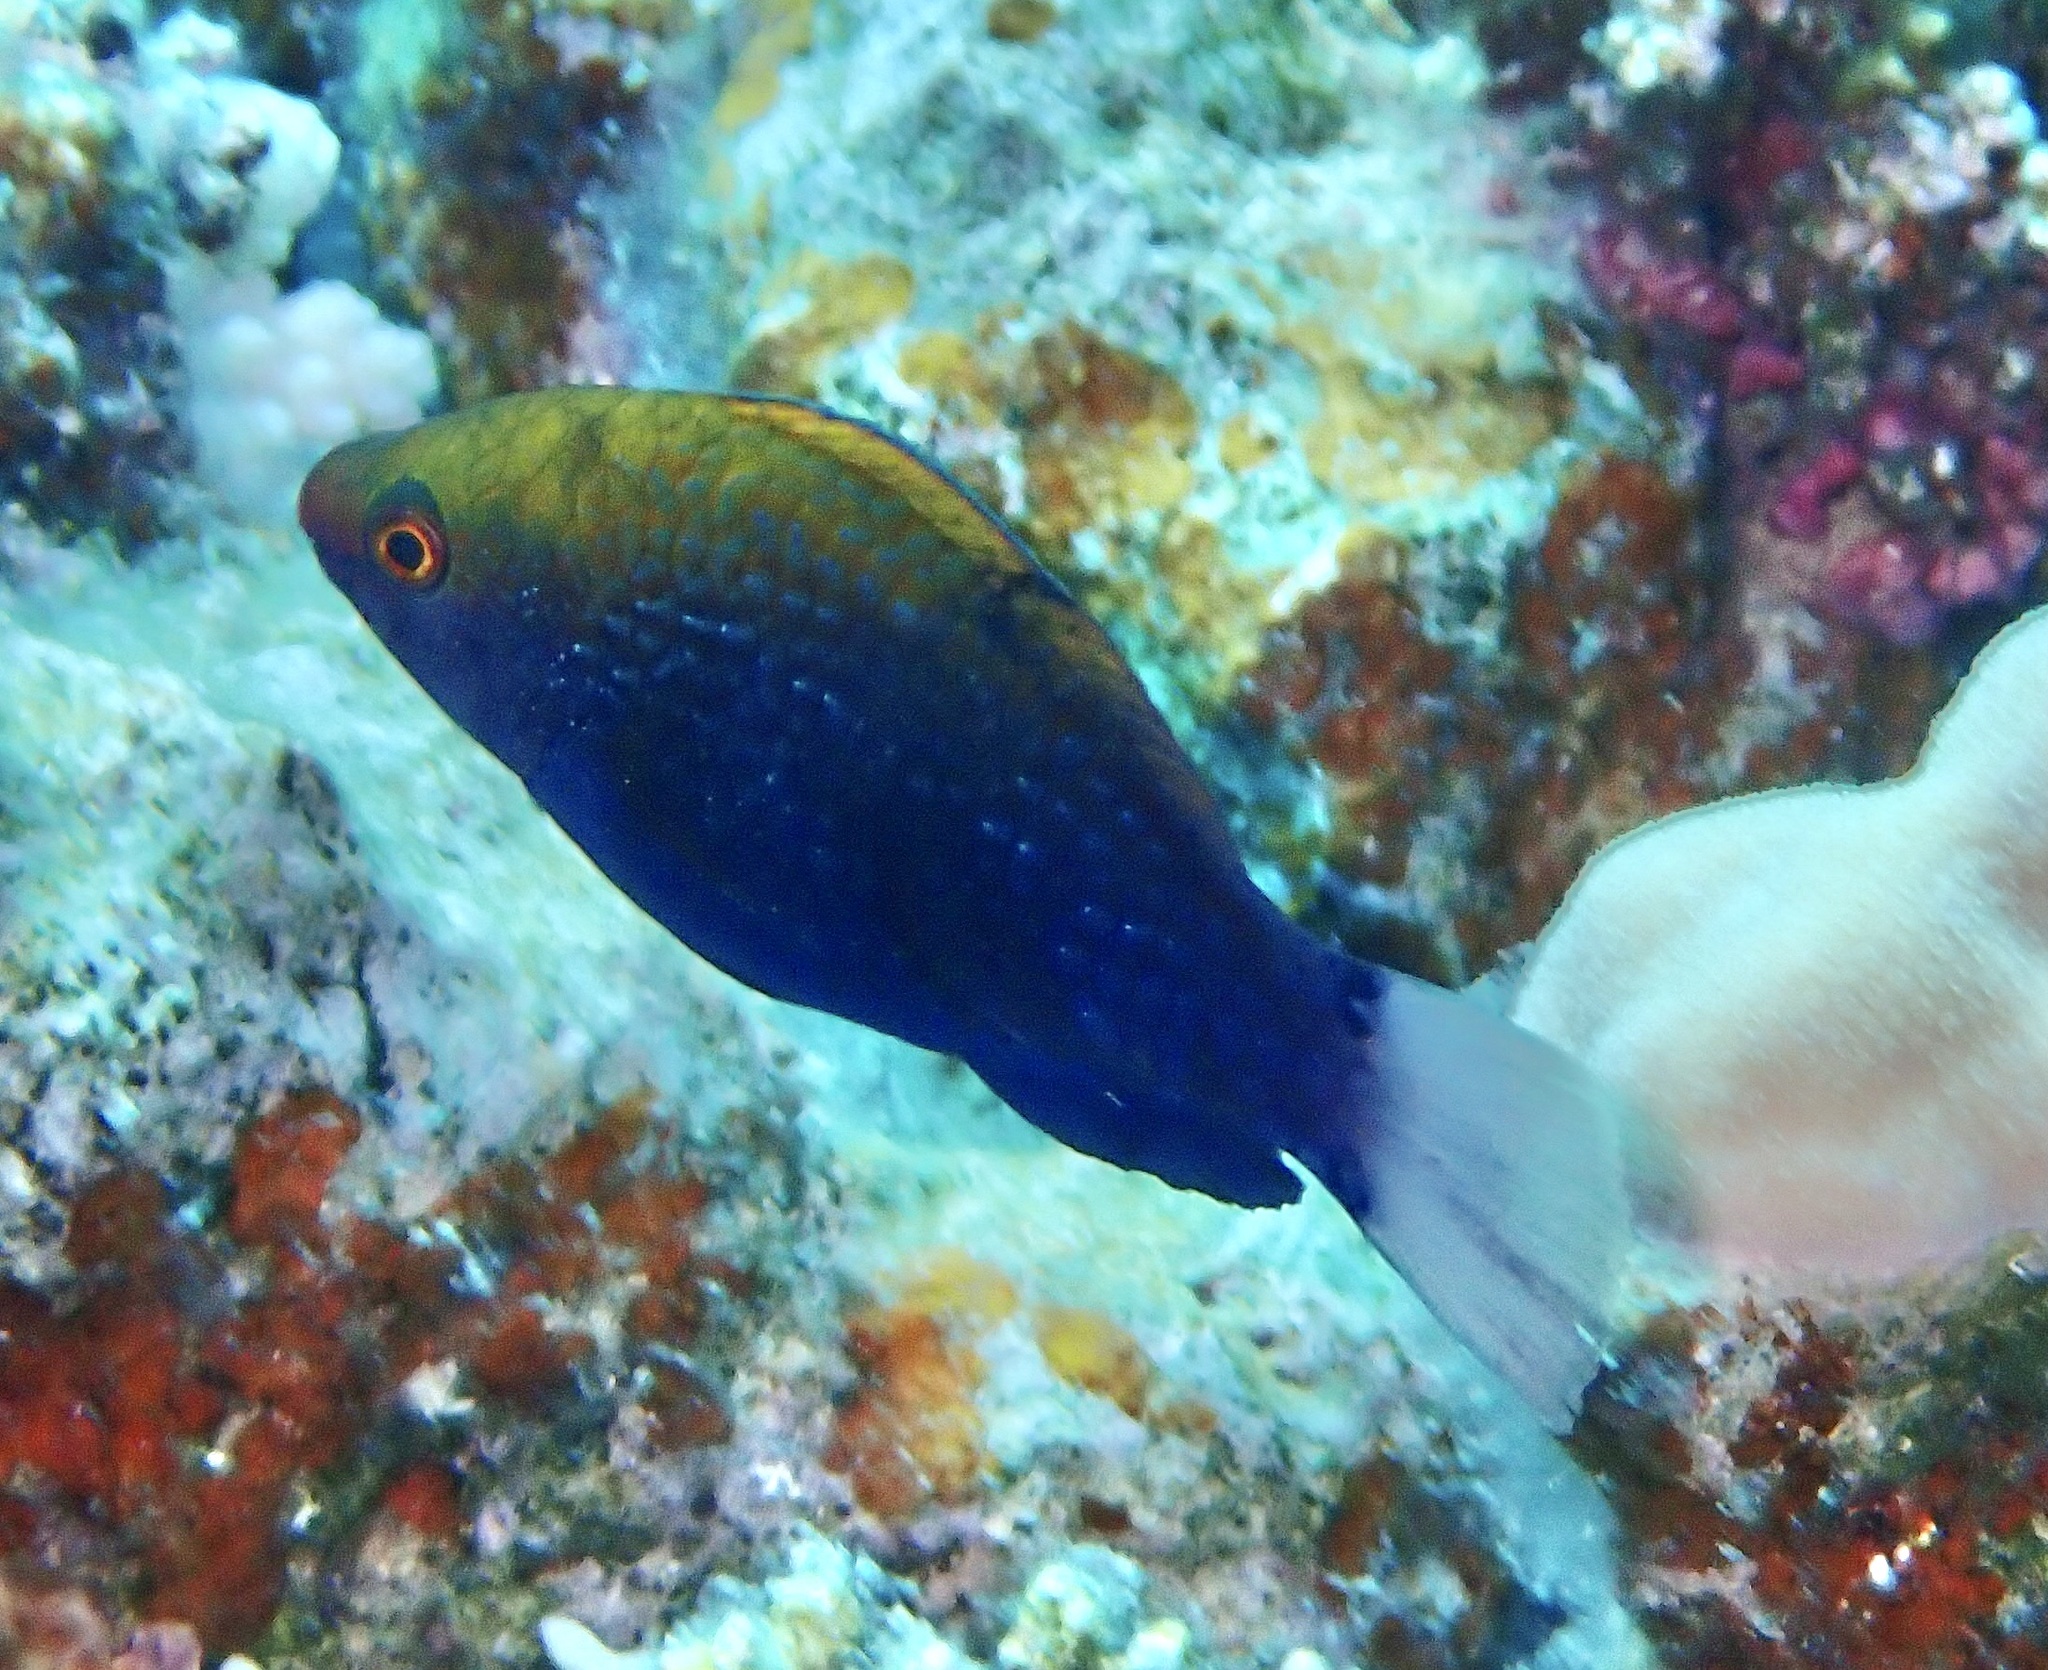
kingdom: Animalia
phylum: Chordata
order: Perciformes
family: Scaridae
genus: Scarus
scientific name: Scarus niger
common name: Dusky parrotfish
